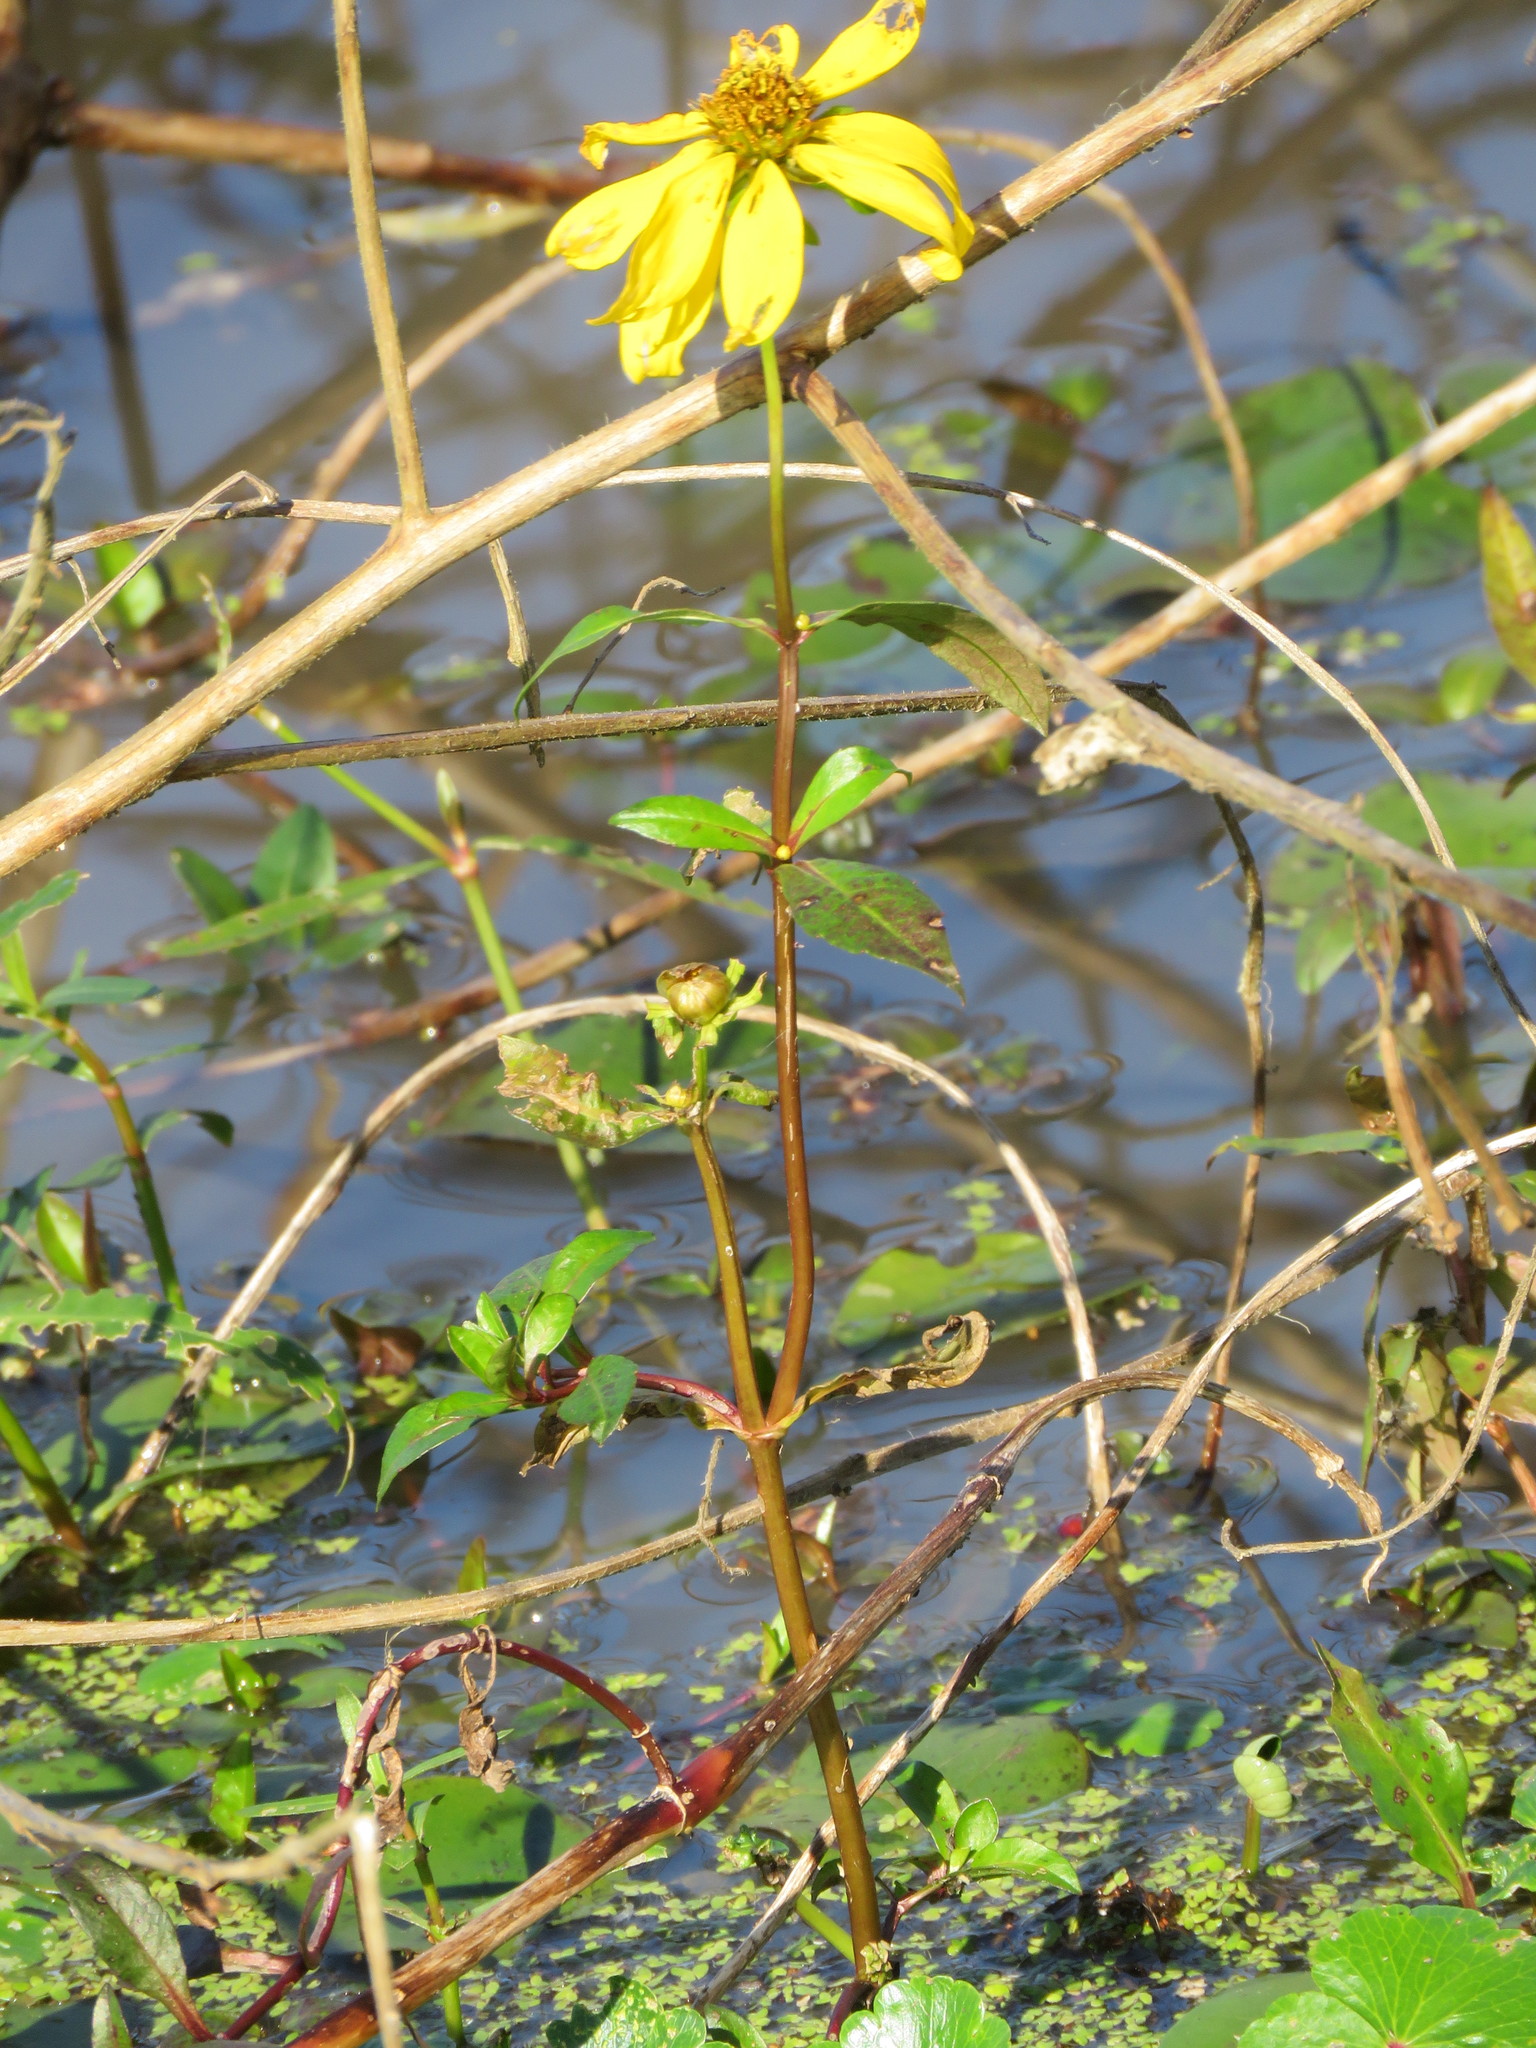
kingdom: Plantae
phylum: Tracheophyta
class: Magnoliopsida
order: Asterales
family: Asteraceae
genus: Bidens
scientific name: Bidens laevis
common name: Larger bur-marigold
